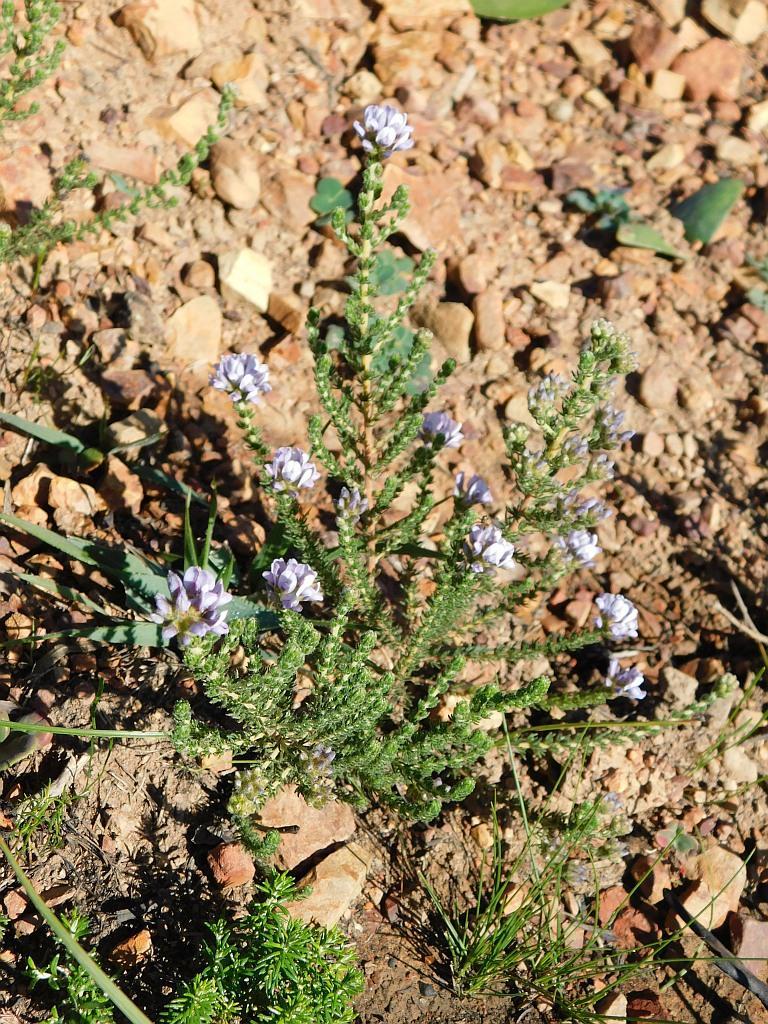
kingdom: Plantae
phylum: Tracheophyta
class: Magnoliopsida
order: Fabales
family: Fabaceae
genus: Aspalathus
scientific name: Aspalathus nigra
